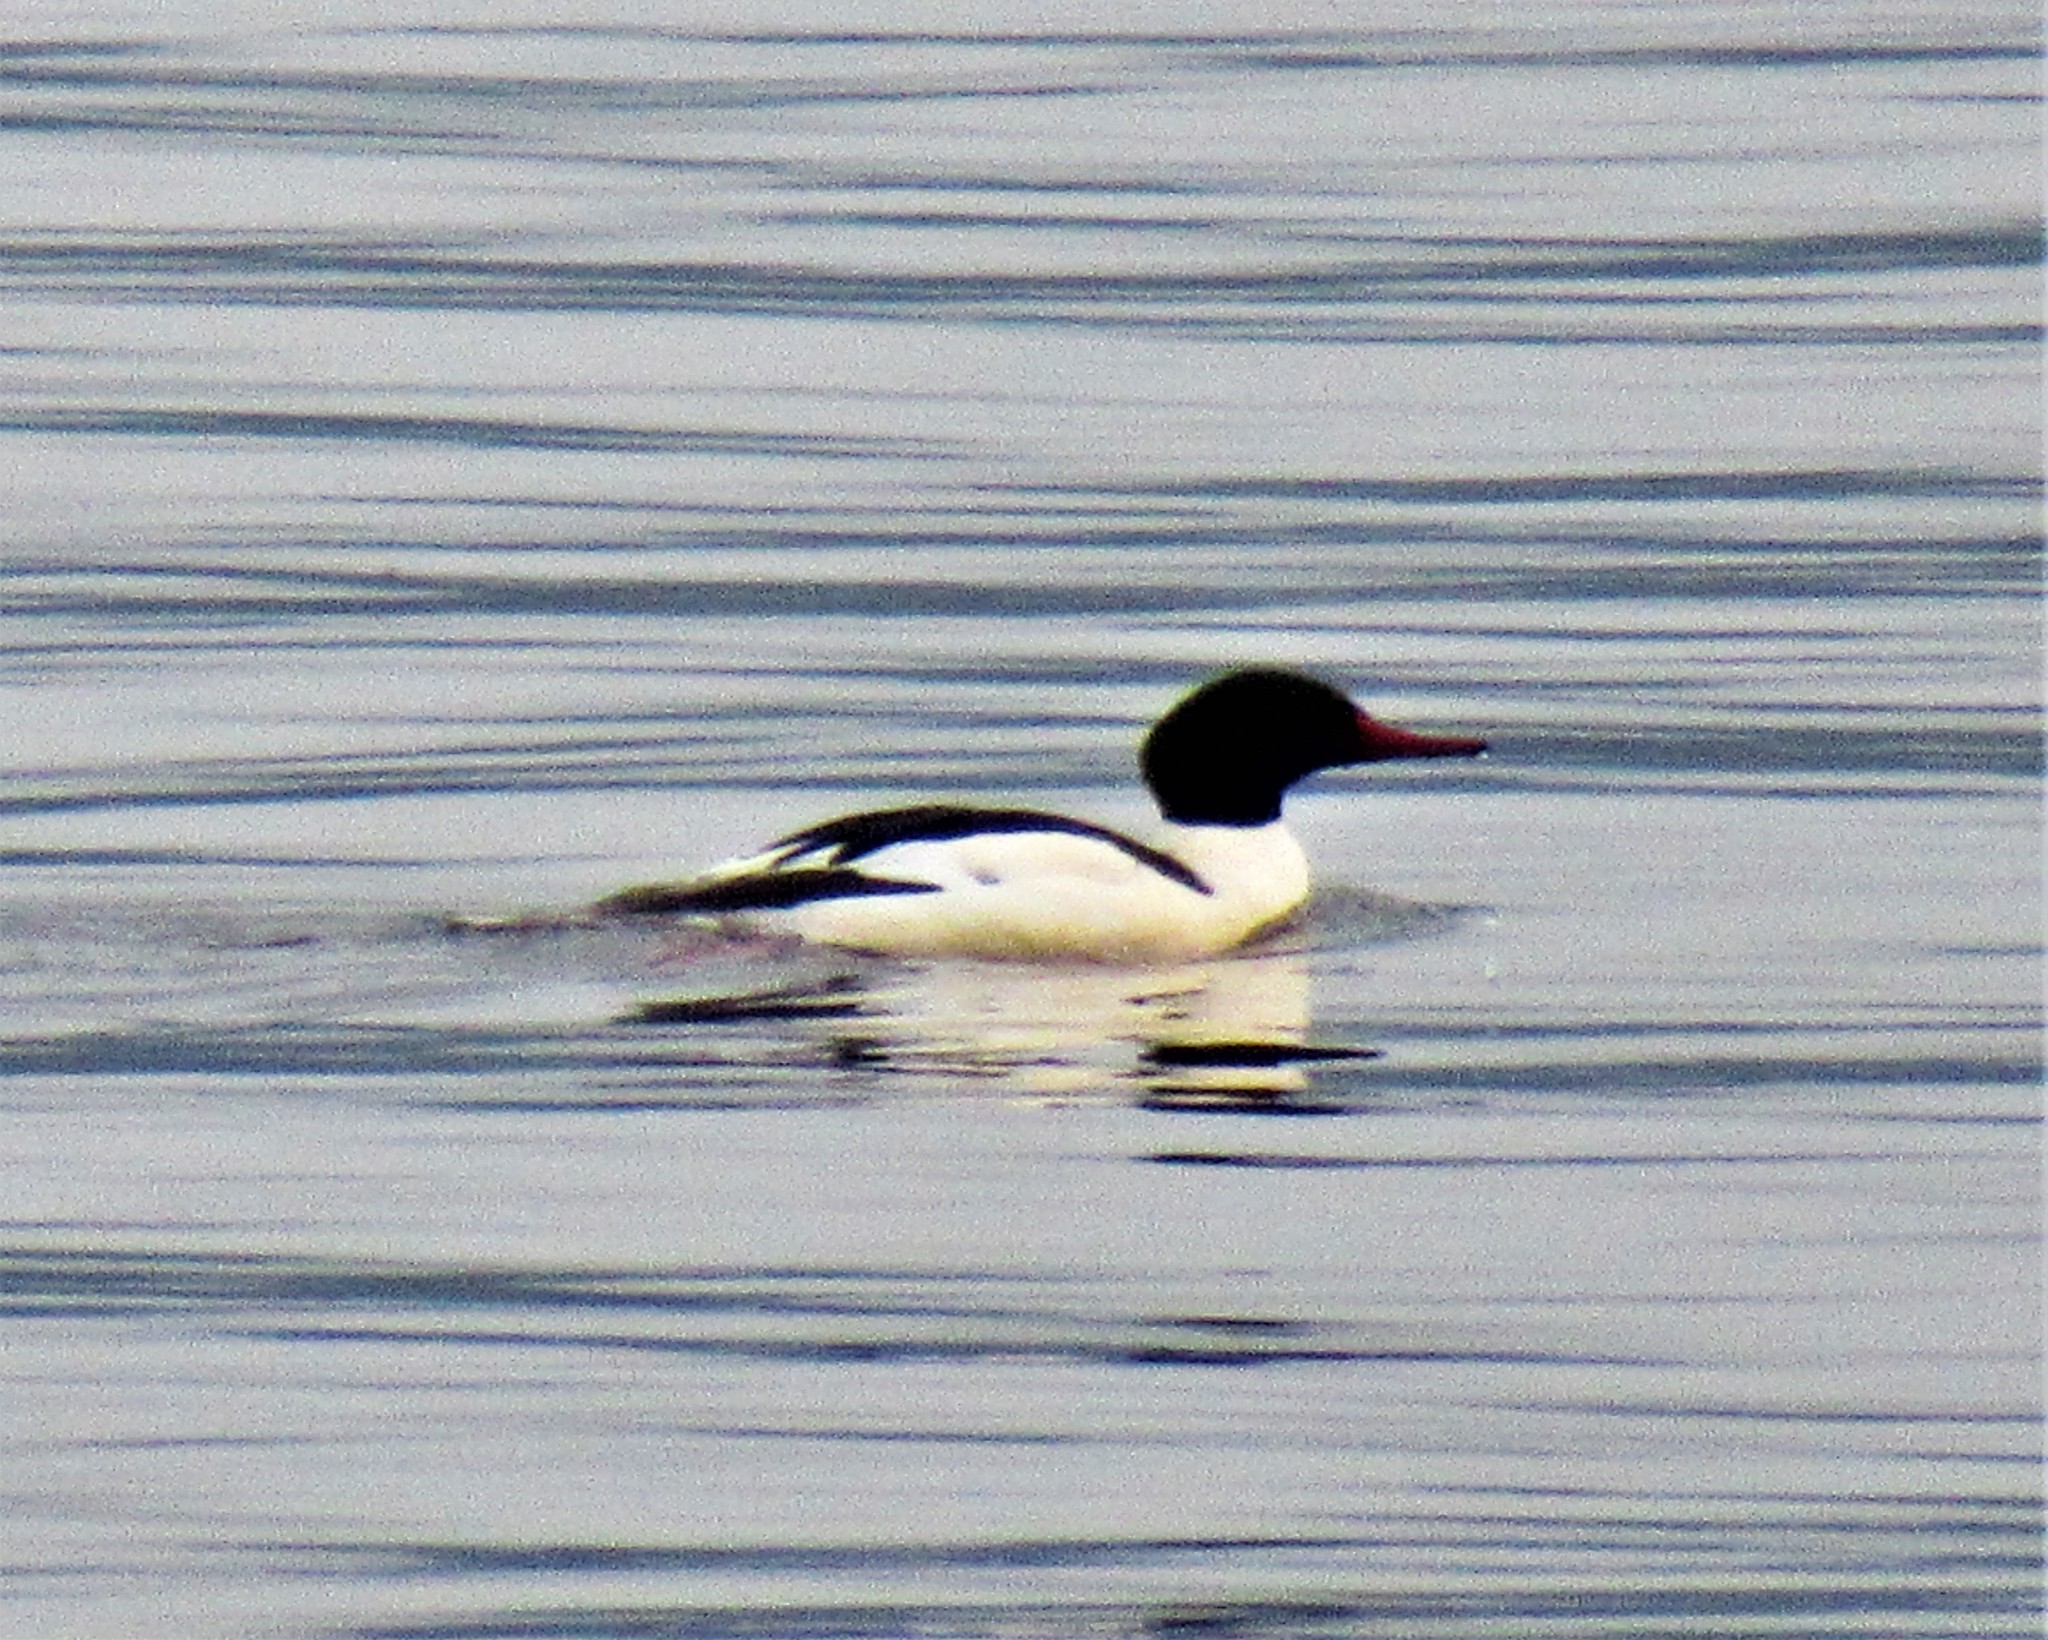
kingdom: Animalia
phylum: Chordata
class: Aves
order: Anseriformes
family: Anatidae
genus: Mergus
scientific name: Mergus merganser
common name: Common merganser
